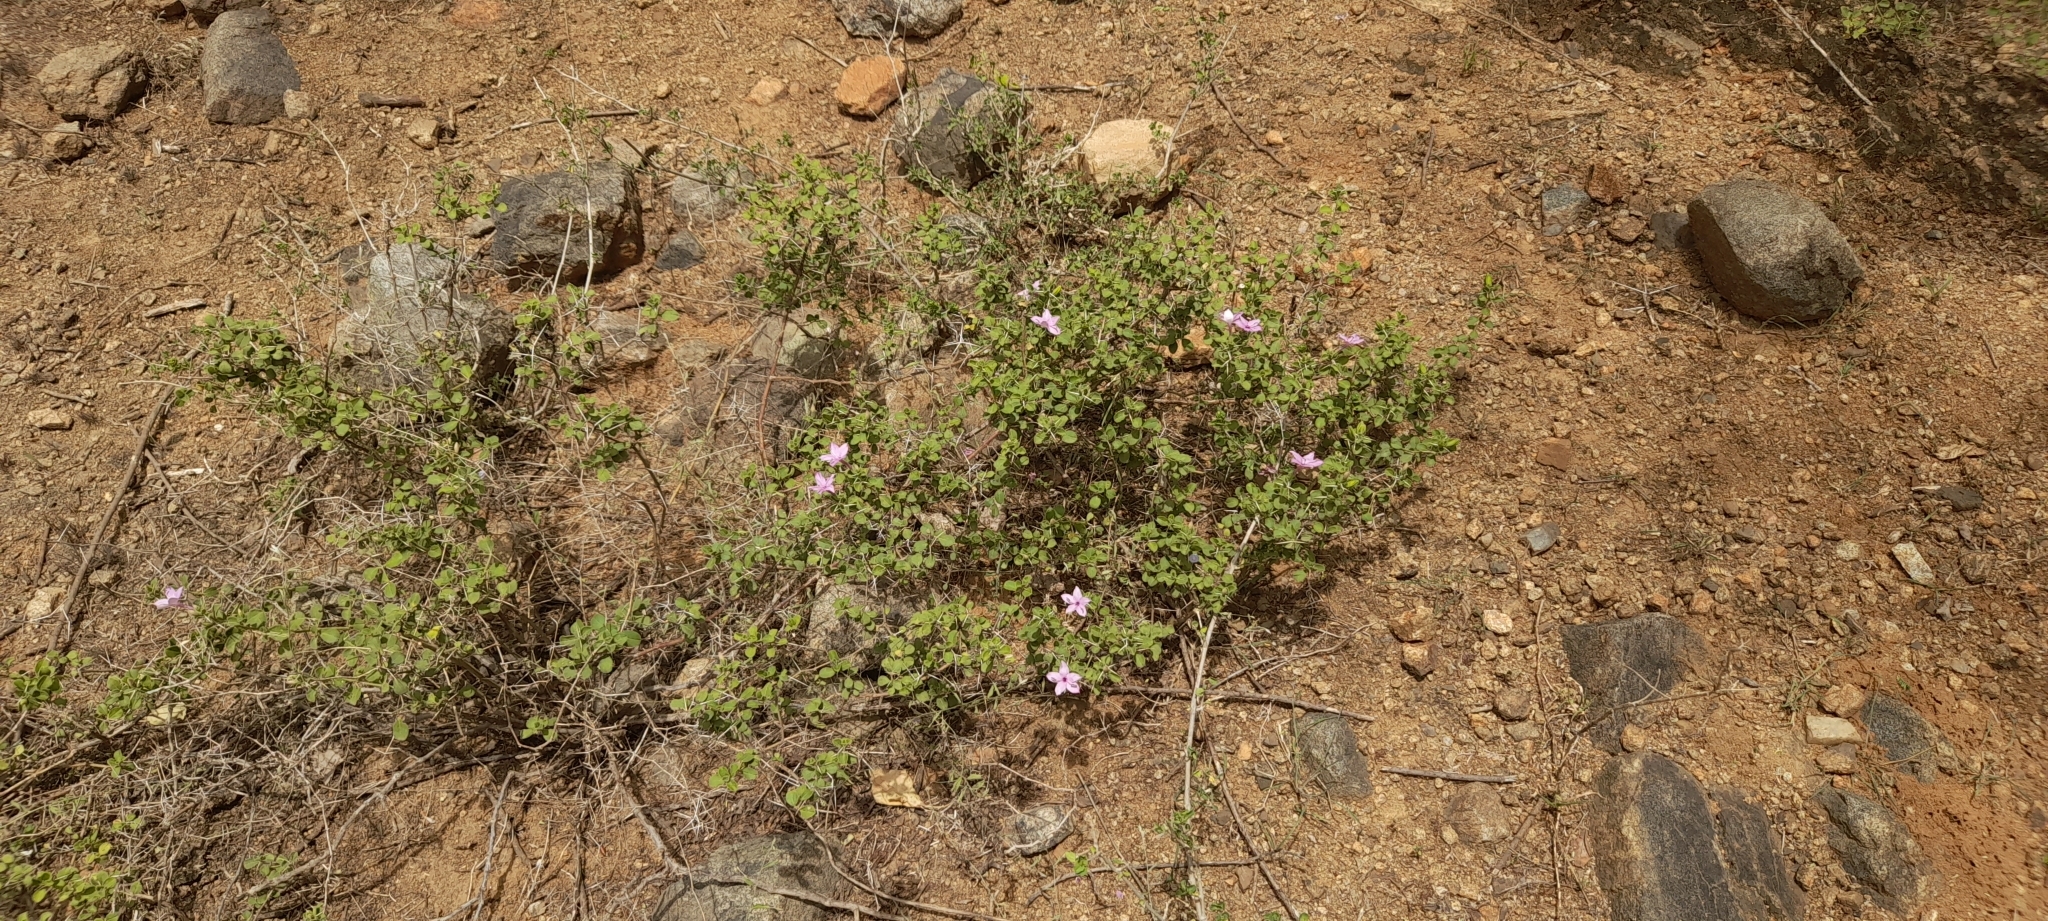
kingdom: Plantae
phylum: Tracheophyta
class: Magnoliopsida
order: Lamiales
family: Acanthaceae
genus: Barleria
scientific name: Barleria mysorensis
